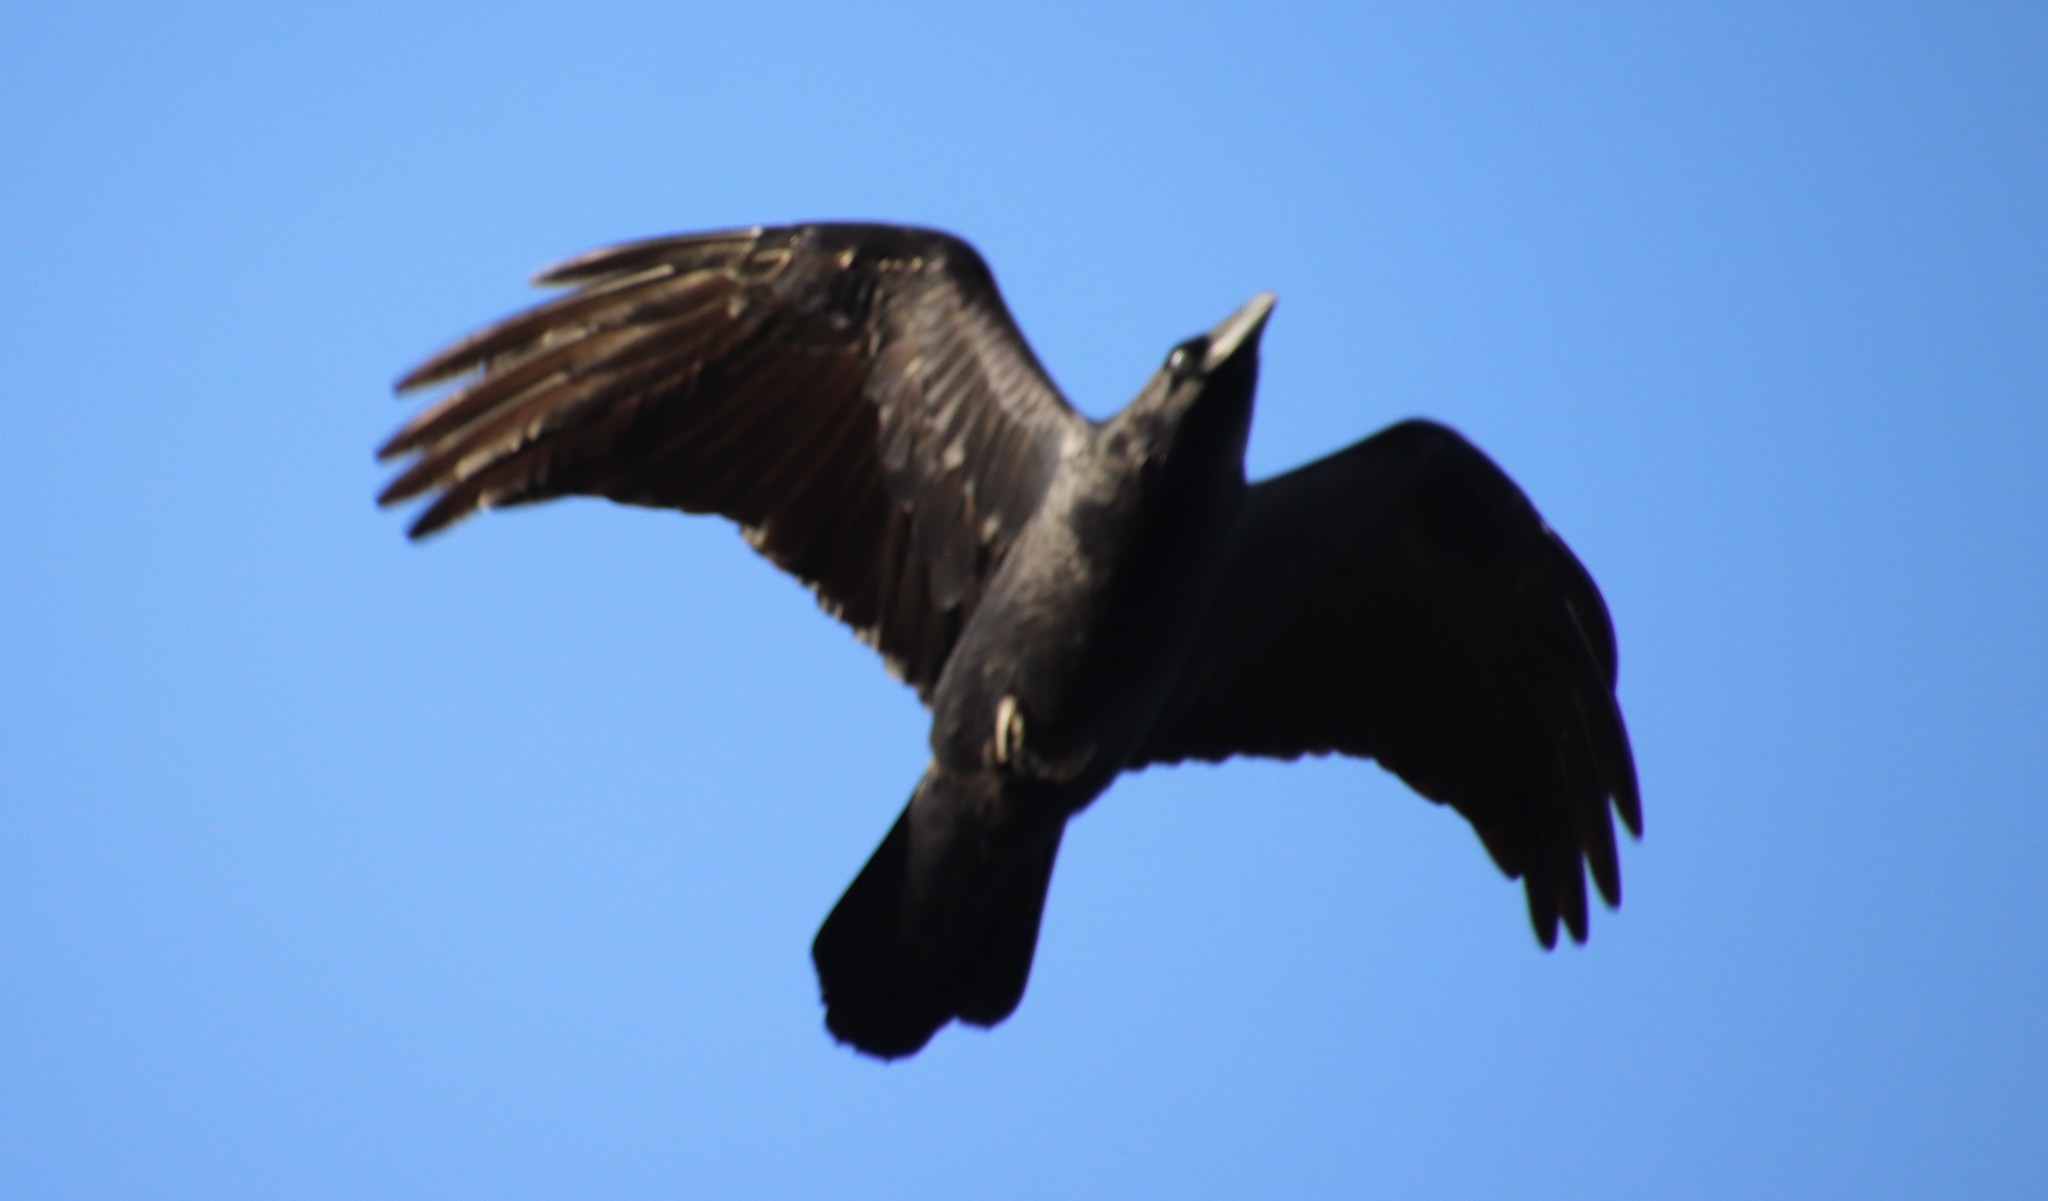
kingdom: Animalia
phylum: Chordata
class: Aves
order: Passeriformes
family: Corvidae
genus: Corvus
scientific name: Corvus corax
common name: Common raven
